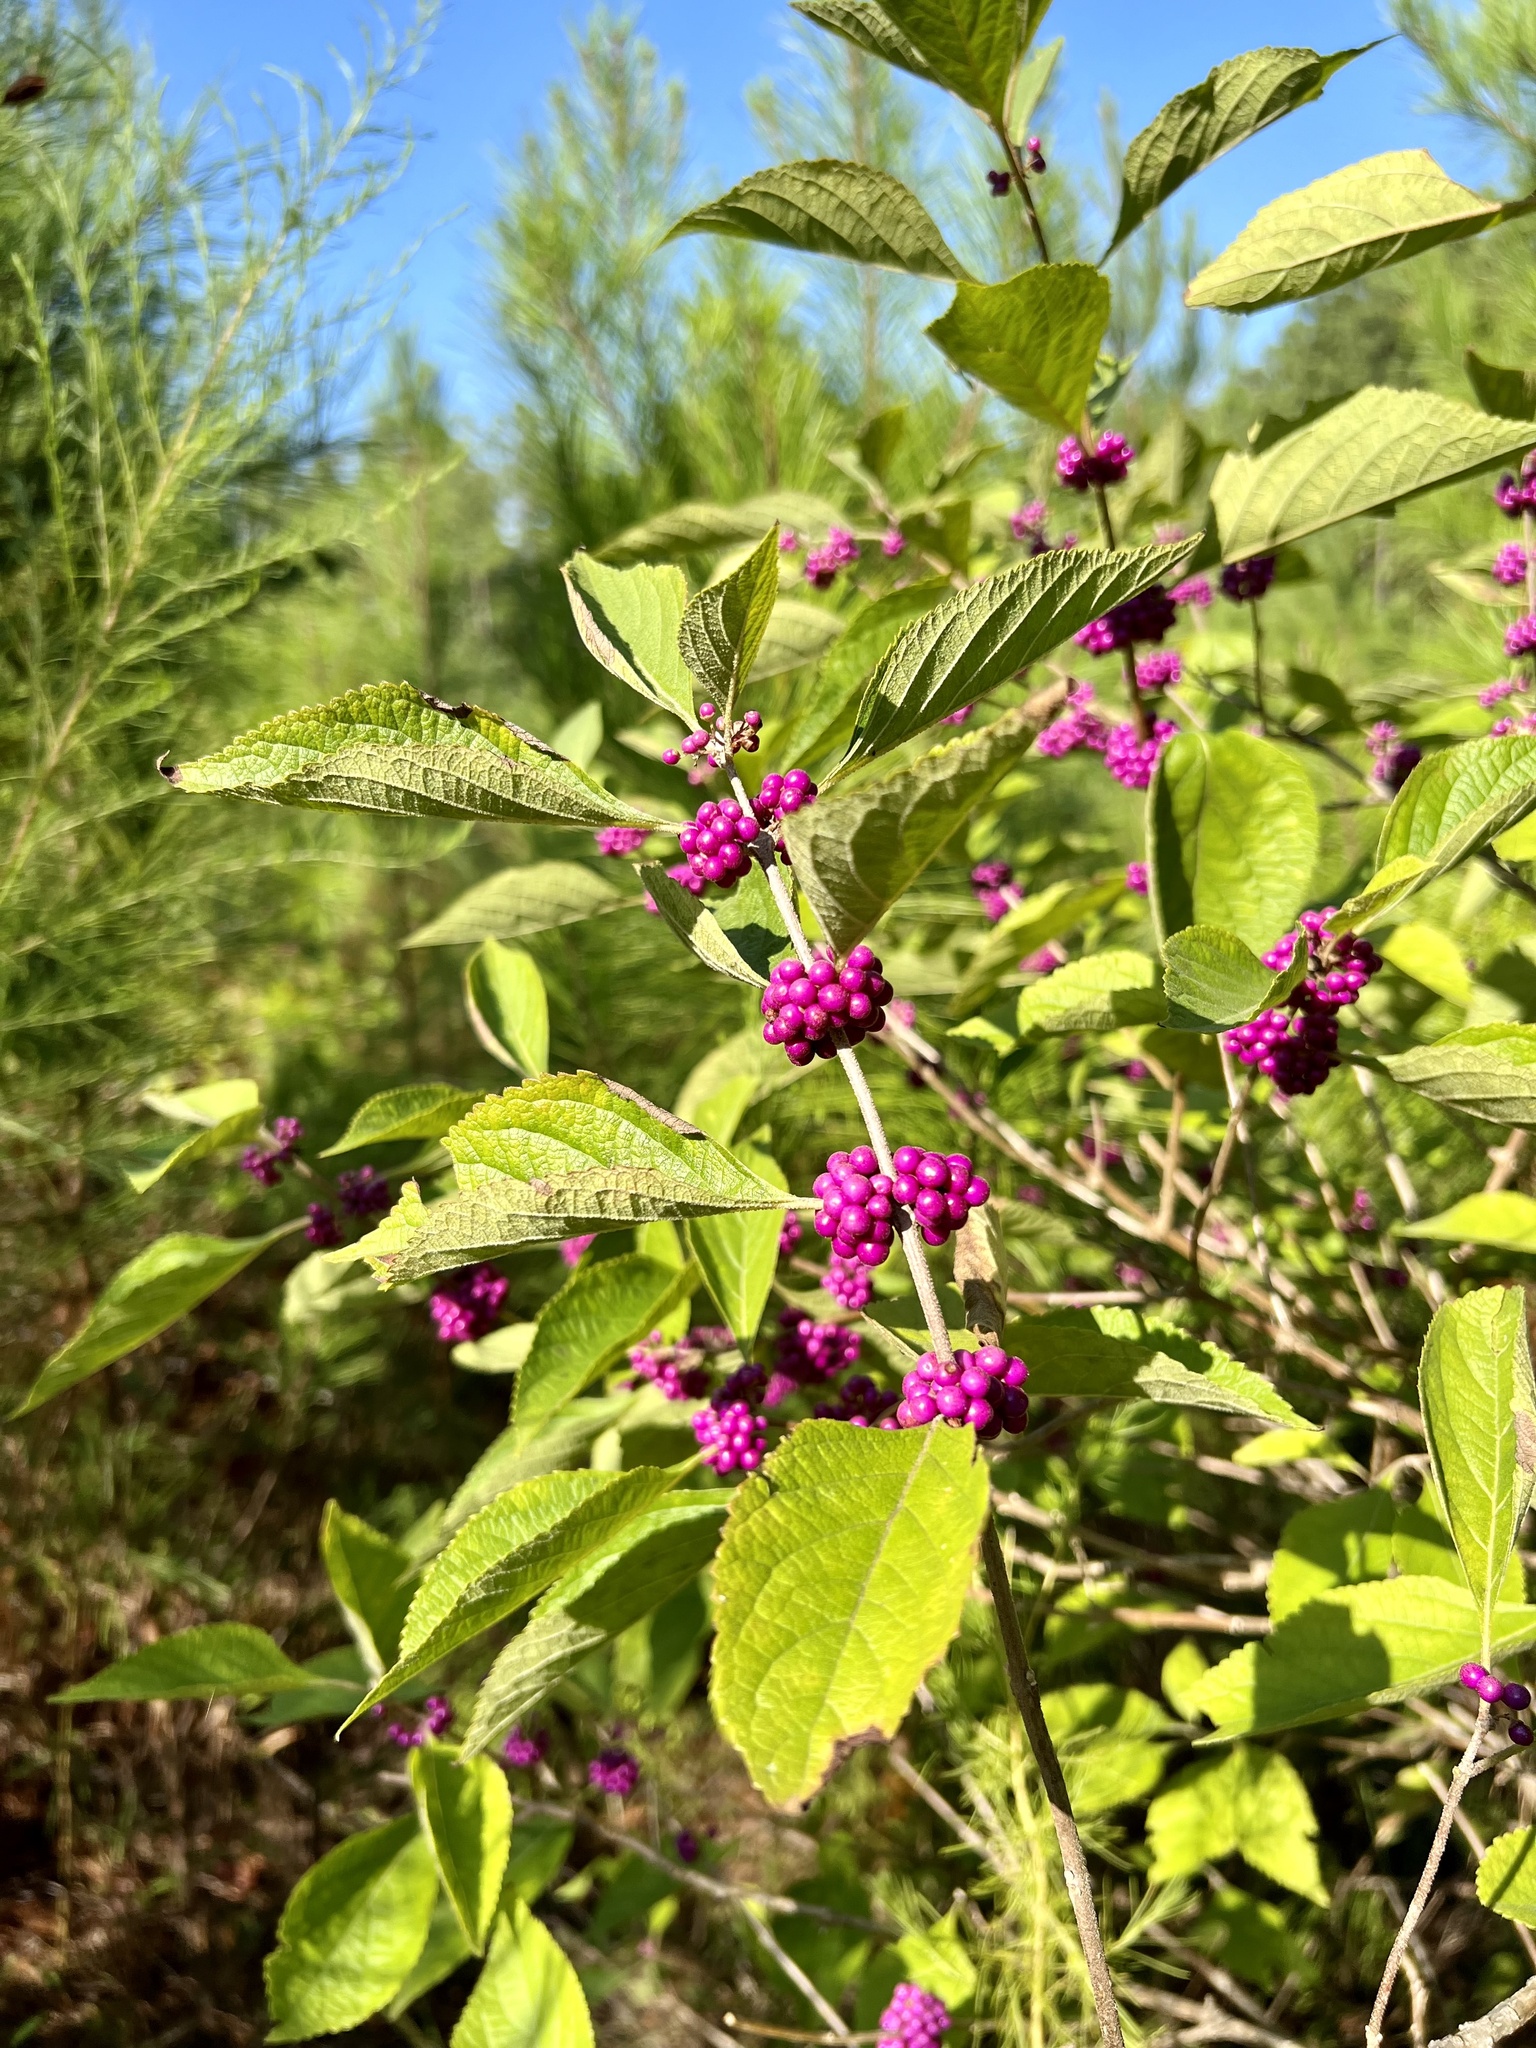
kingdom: Plantae
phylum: Tracheophyta
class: Magnoliopsida
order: Lamiales
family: Lamiaceae
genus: Callicarpa
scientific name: Callicarpa americana
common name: American beautyberry
